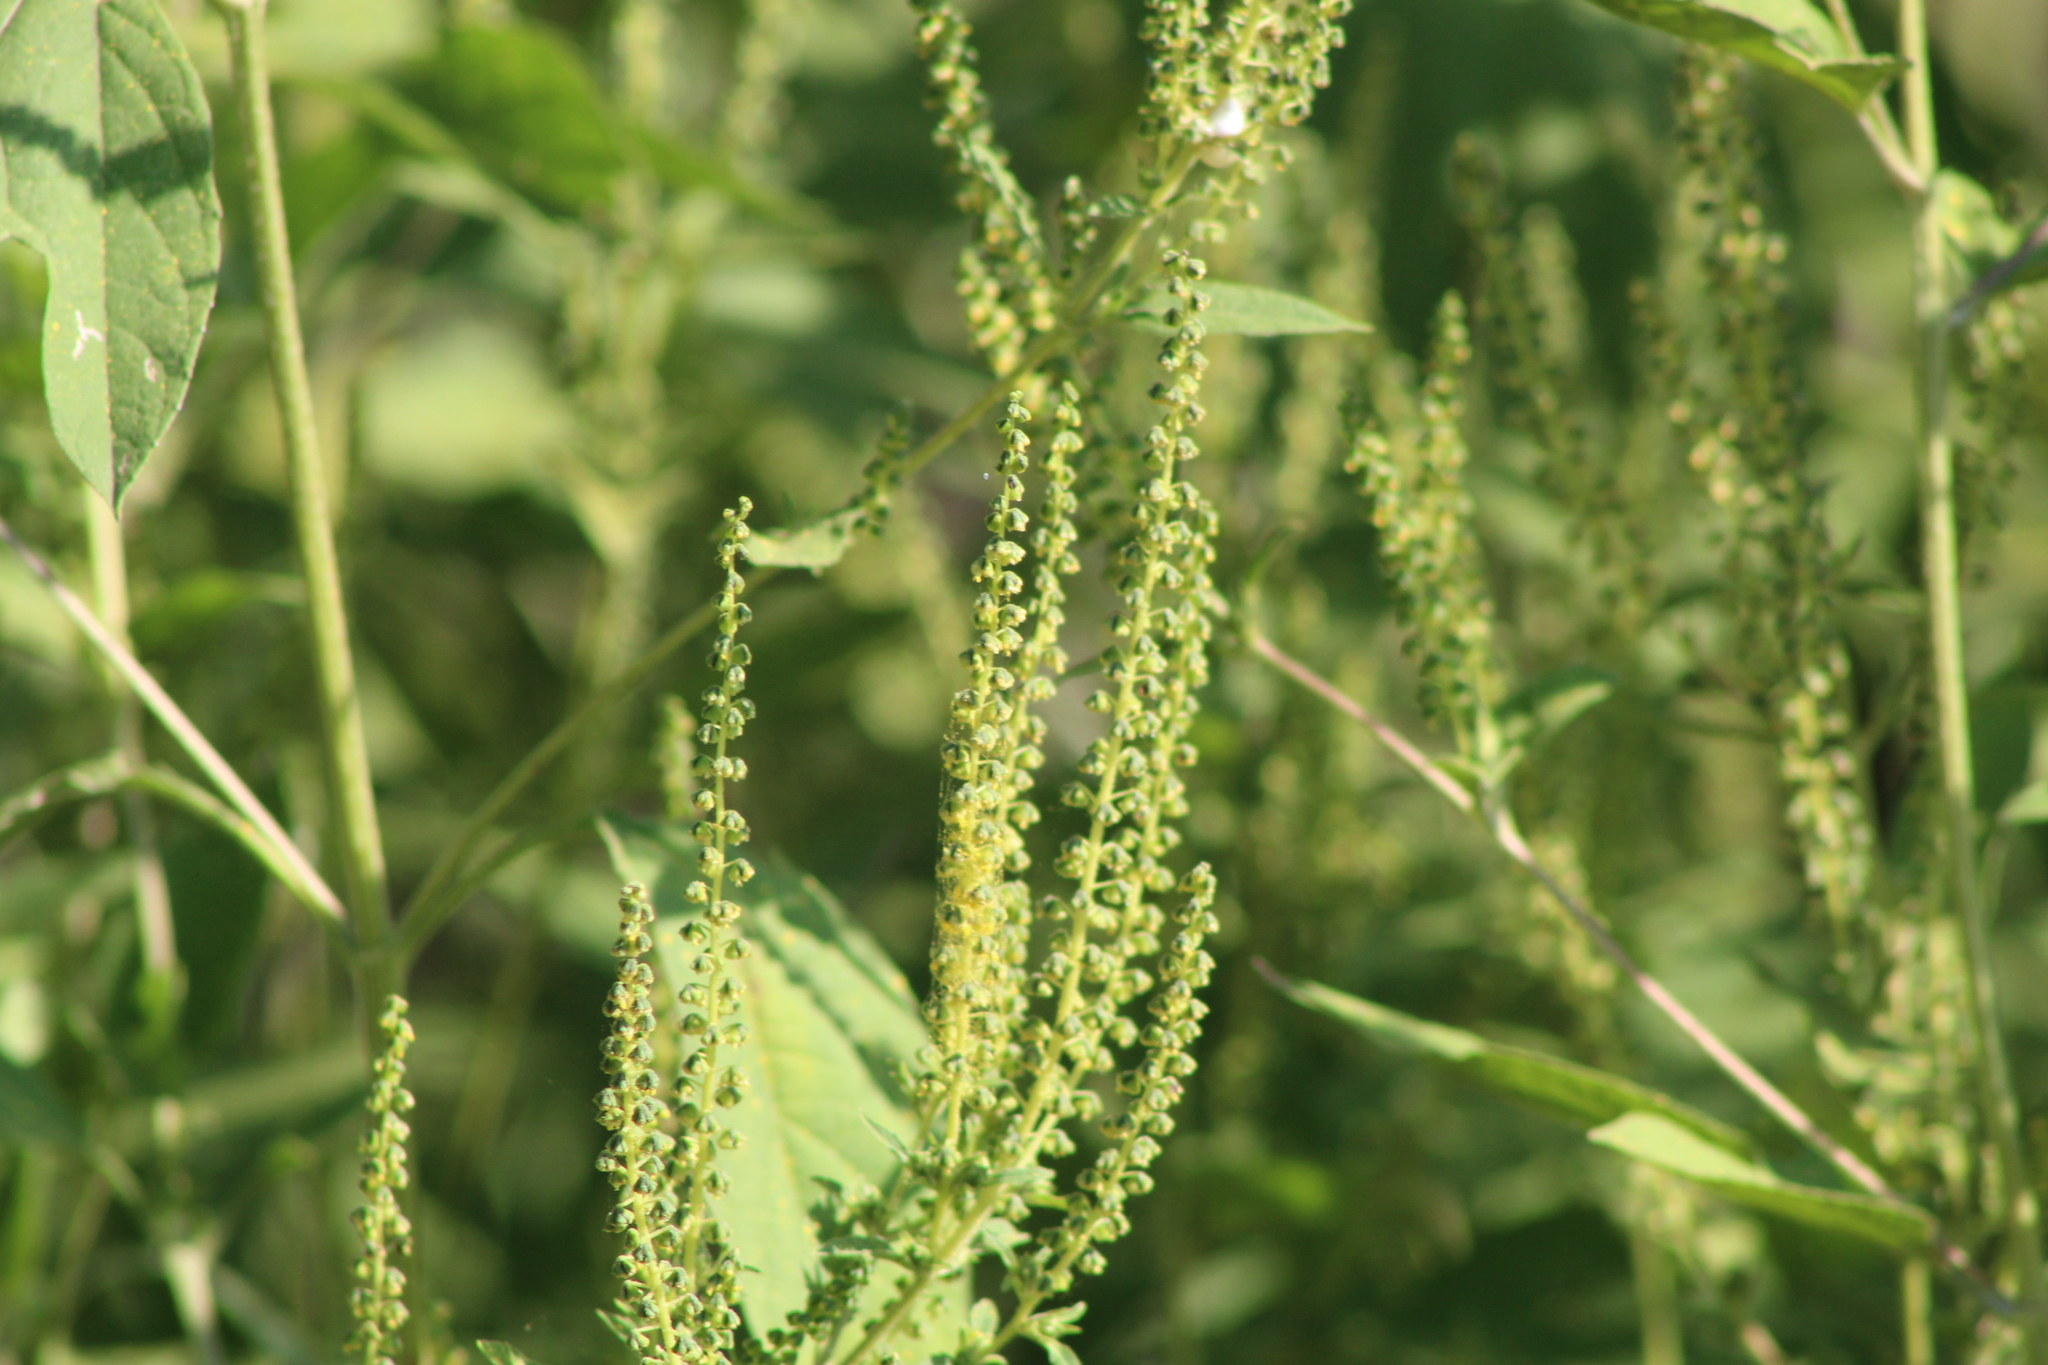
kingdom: Plantae
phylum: Tracheophyta
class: Magnoliopsida
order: Asterales
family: Asteraceae
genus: Ambrosia
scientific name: Ambrosia trifida
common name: Giant ragweed
